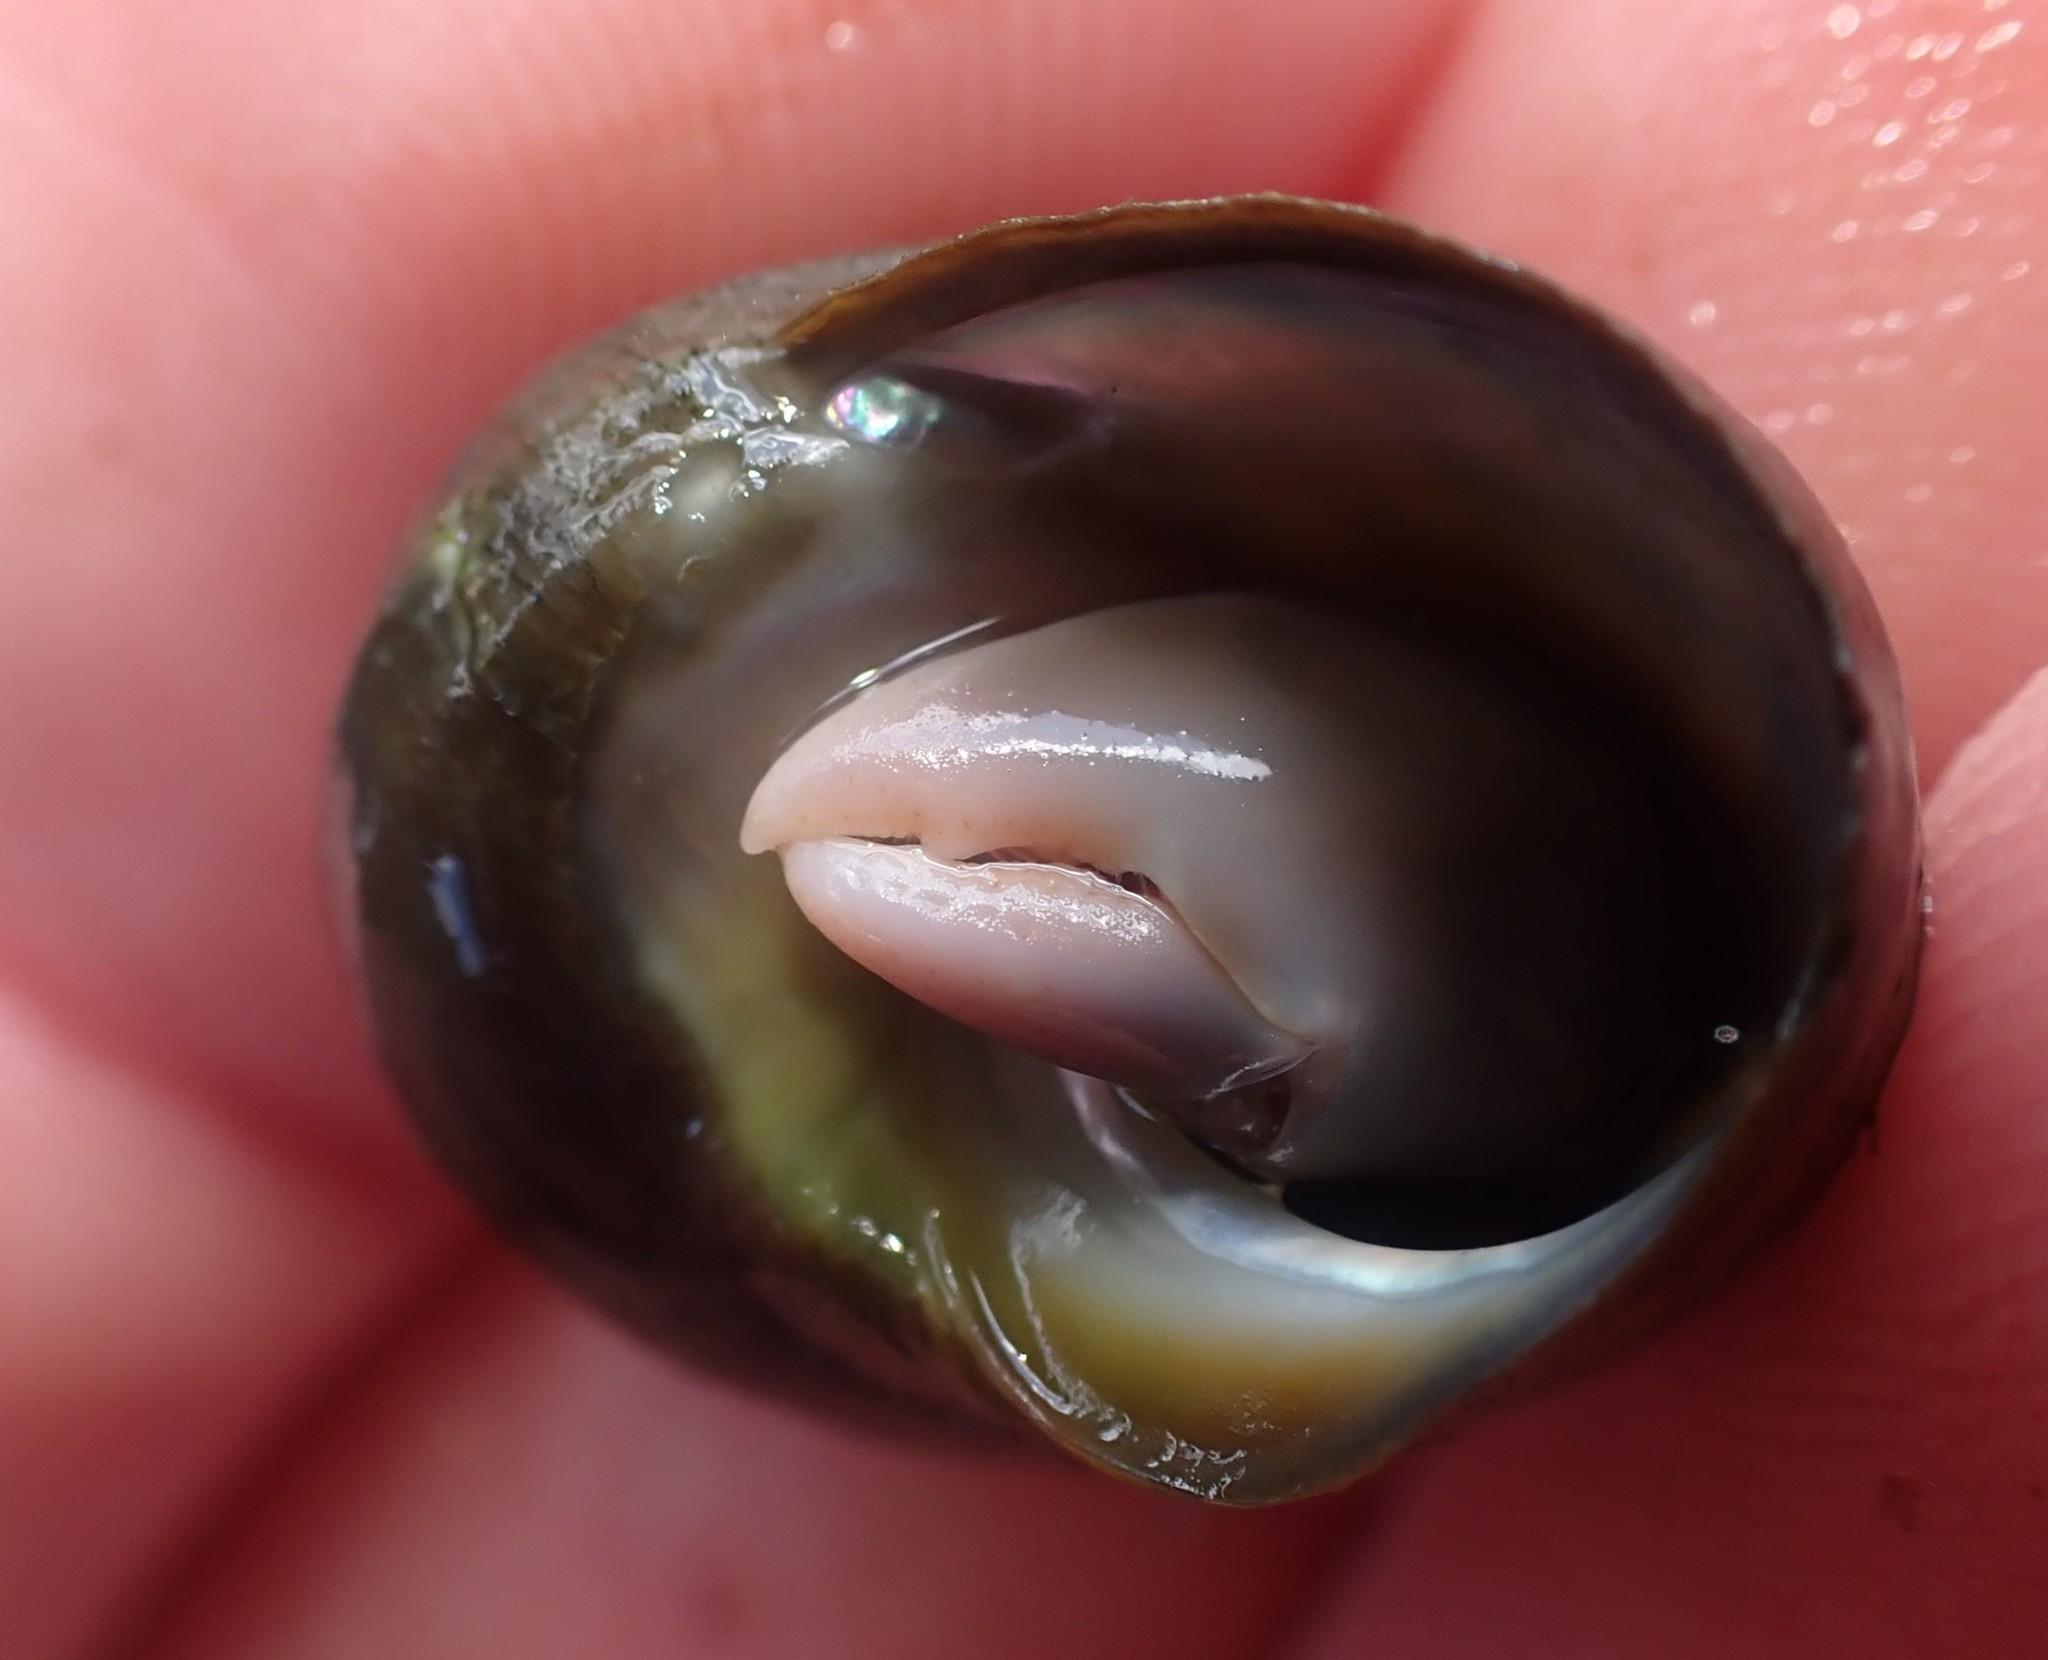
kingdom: Animalia
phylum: Arthropoda
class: Malacostraca
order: Decapoda
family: Paguridae
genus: Pagurixus
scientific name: Pagurixus hectori
